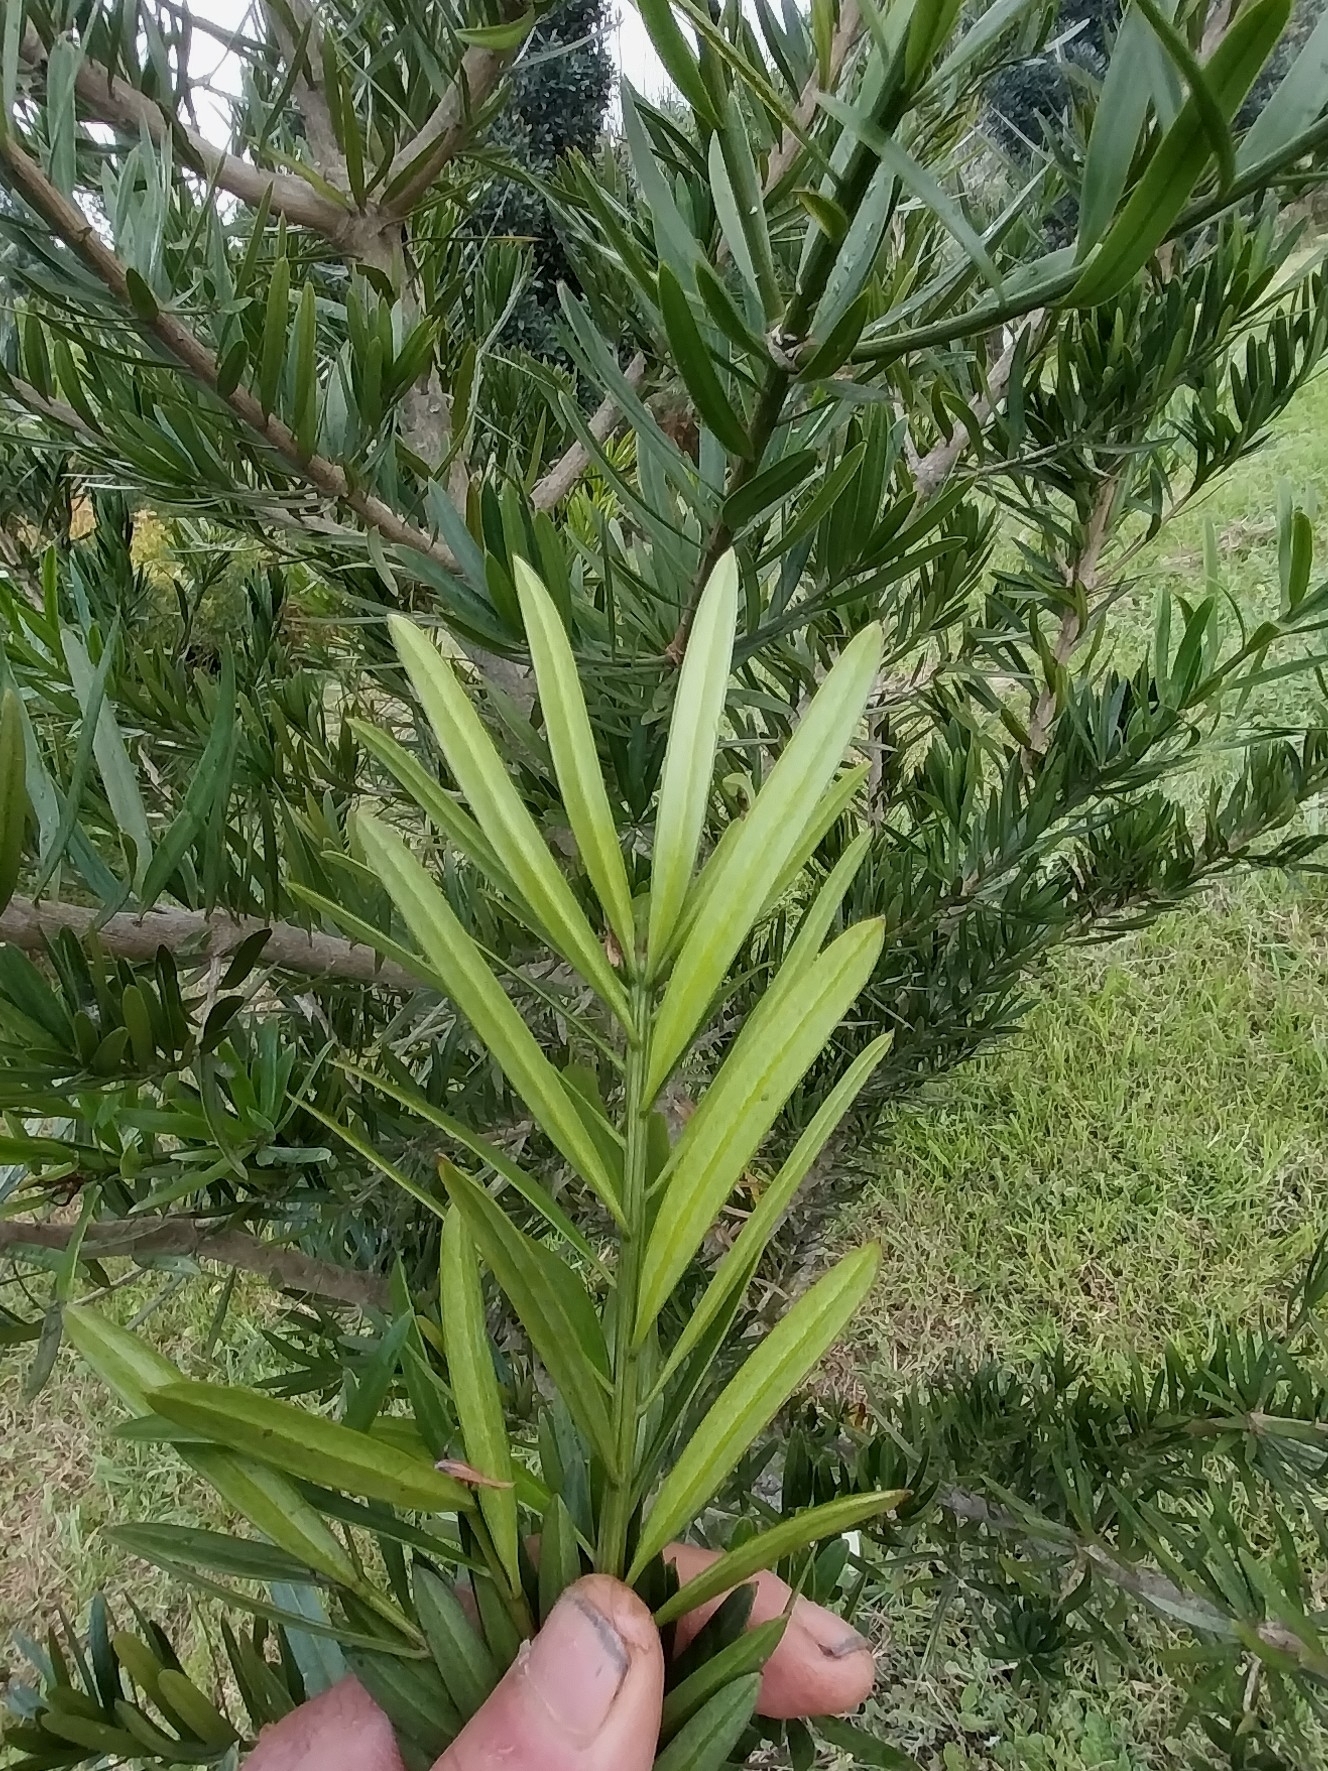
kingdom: Plantae
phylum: Tracheophyta
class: Pinopsida
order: Pinales
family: Podocarpaceae
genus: Afrocarpus
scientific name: Afrocarpus falcatus
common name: Bastard yellowwood
